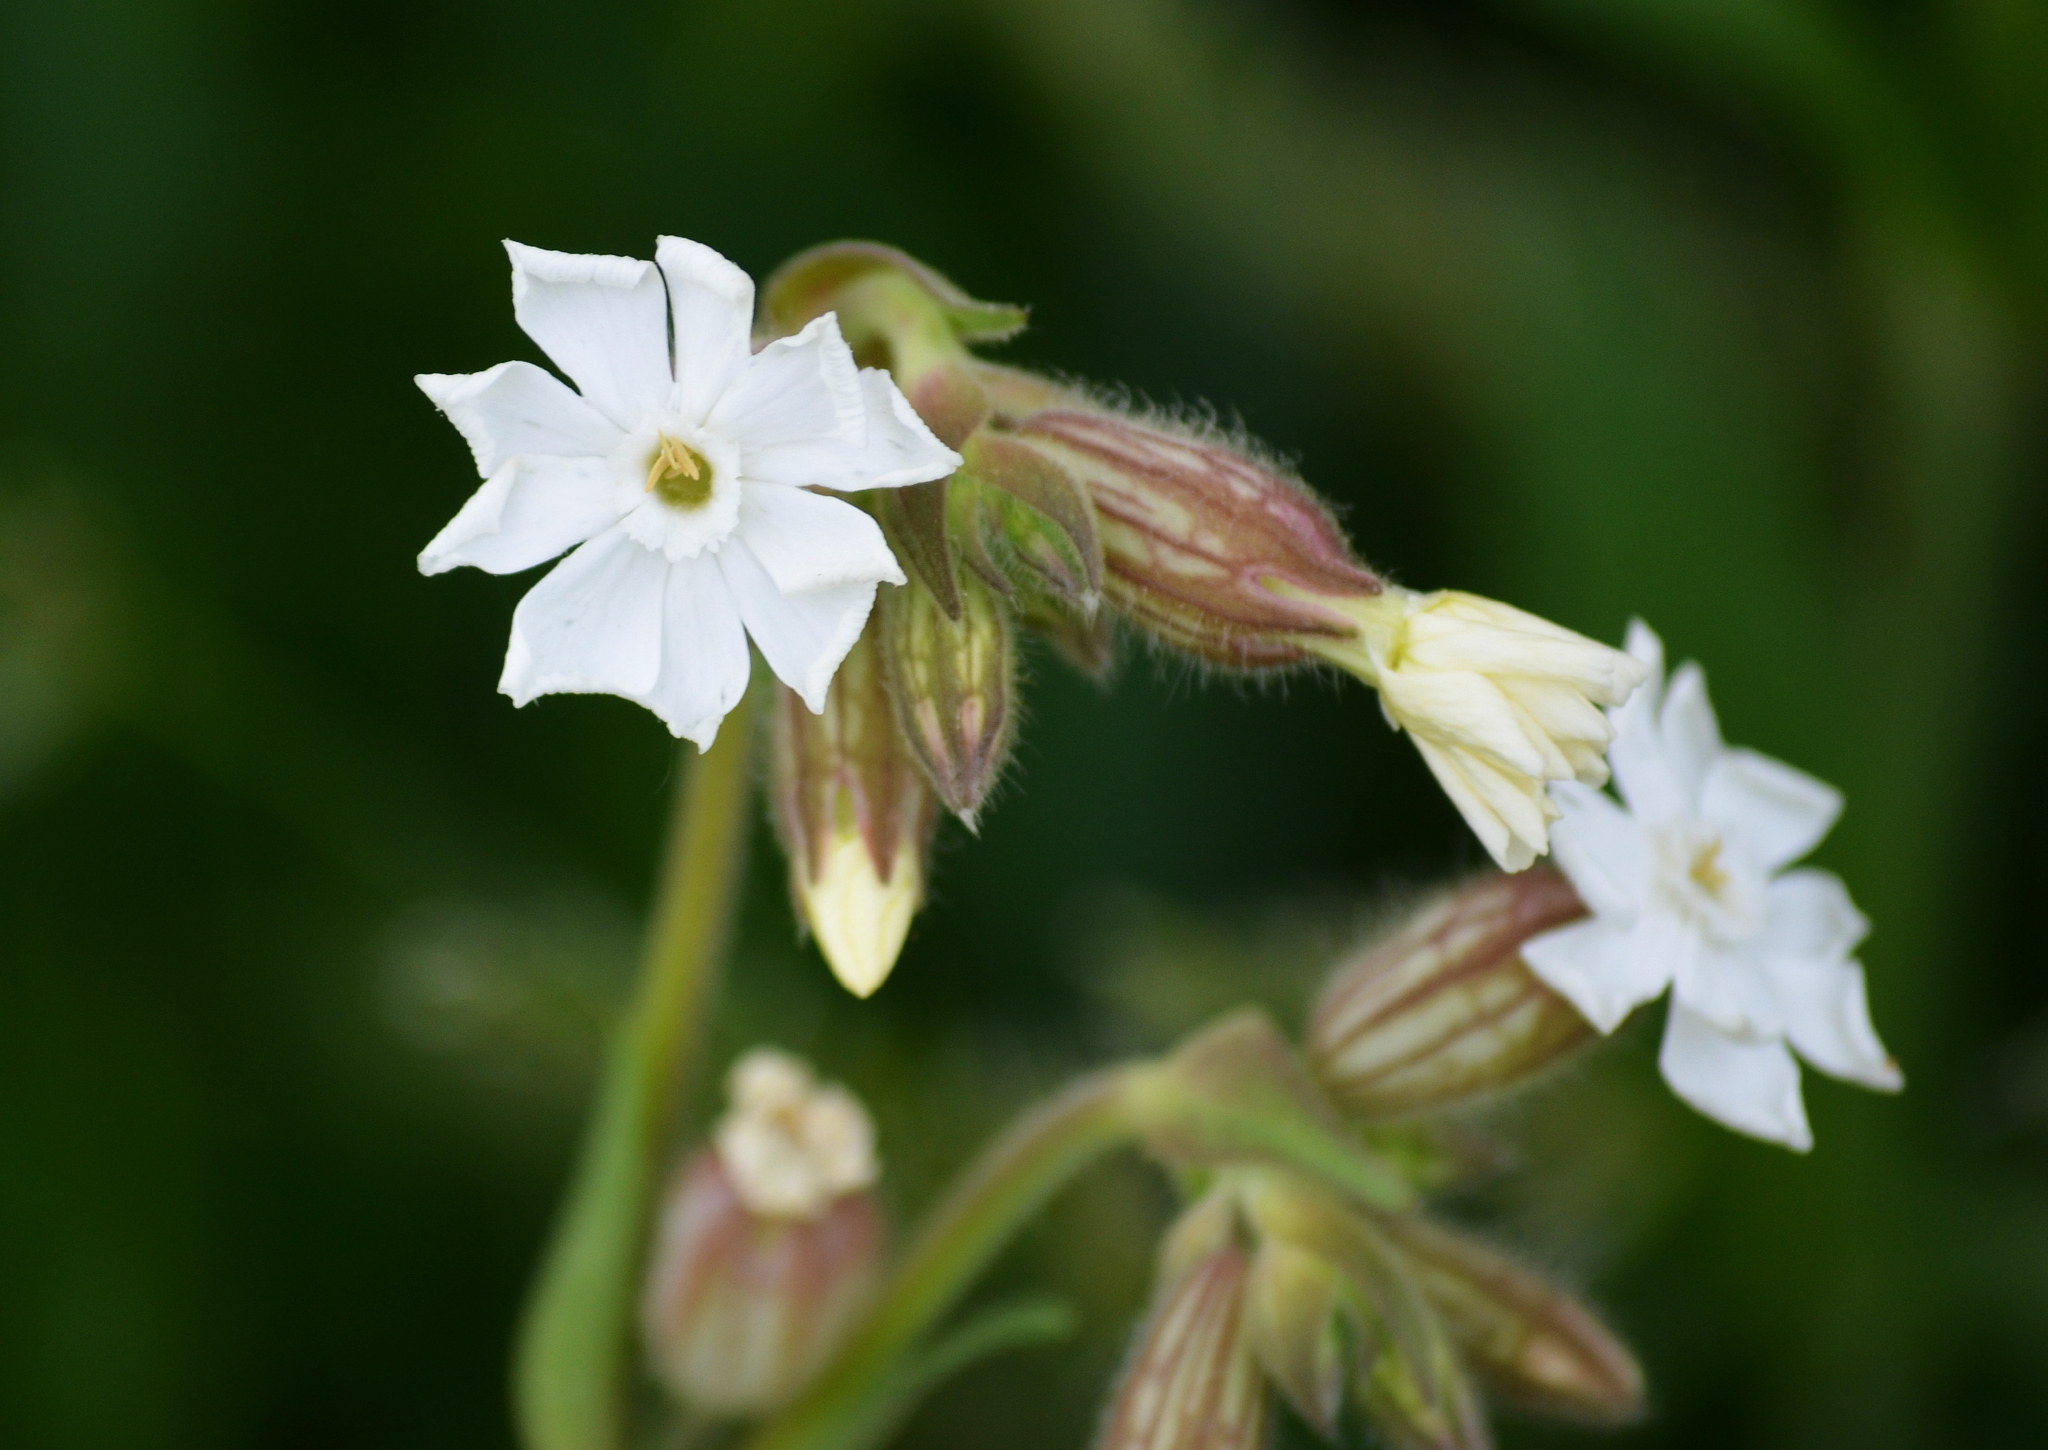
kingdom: Plantae
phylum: Tracheophyta
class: Magnoliopsida
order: Caryophyllales
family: Caryophyllaceae
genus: Silene
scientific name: Silene latifolia
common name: White campion
